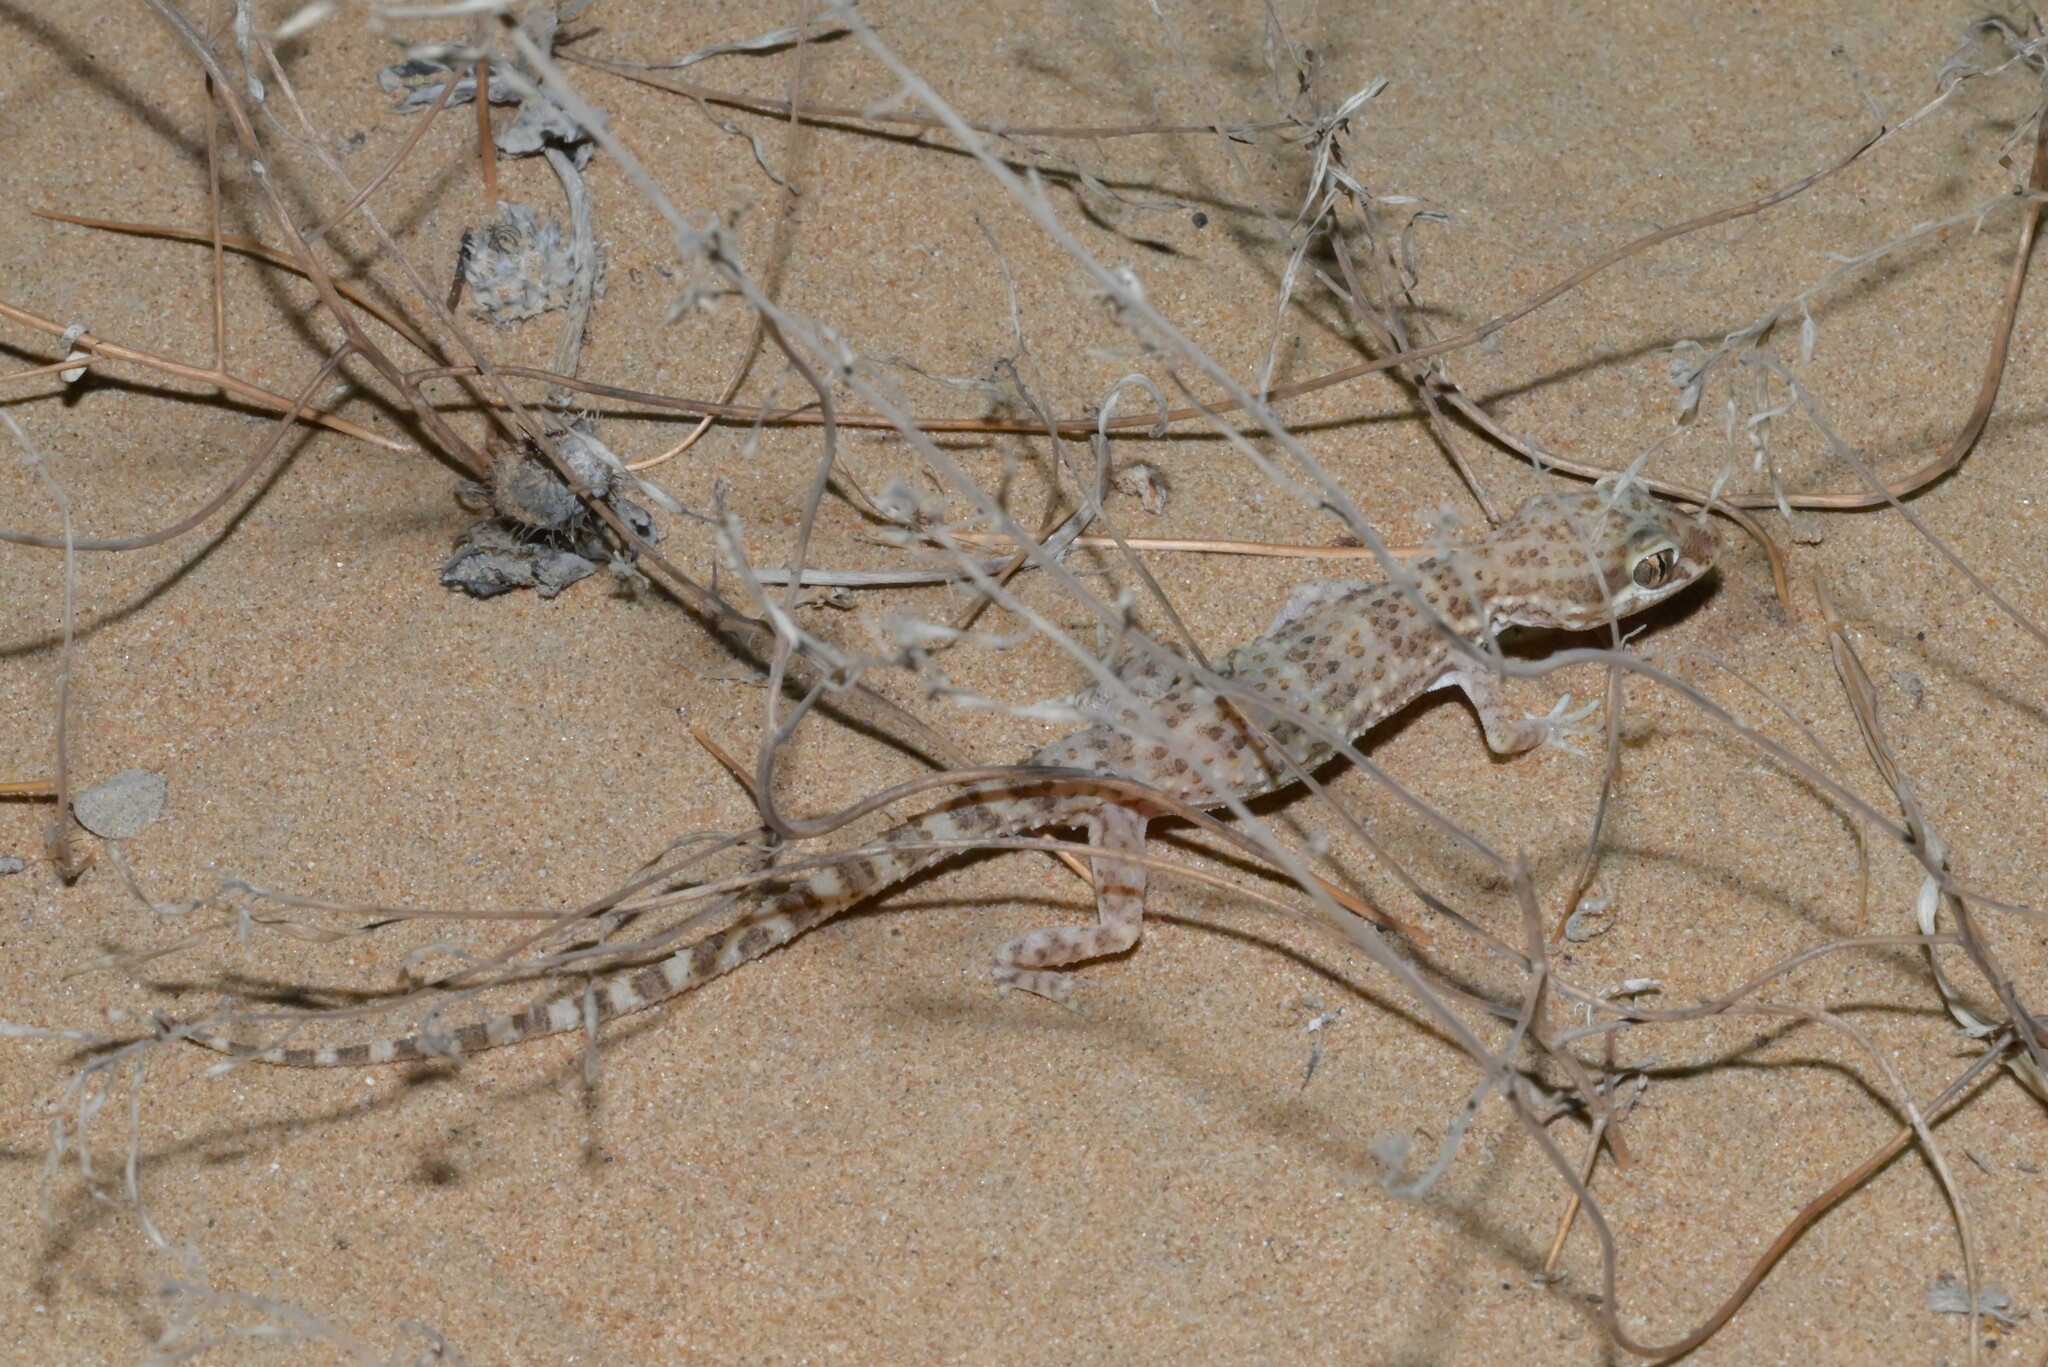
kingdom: Animalia
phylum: Chordata
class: Squamata
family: Gekkonidae
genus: Bunopus
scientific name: Bunopus tuberculatus
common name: Southern tuberculated gecko
